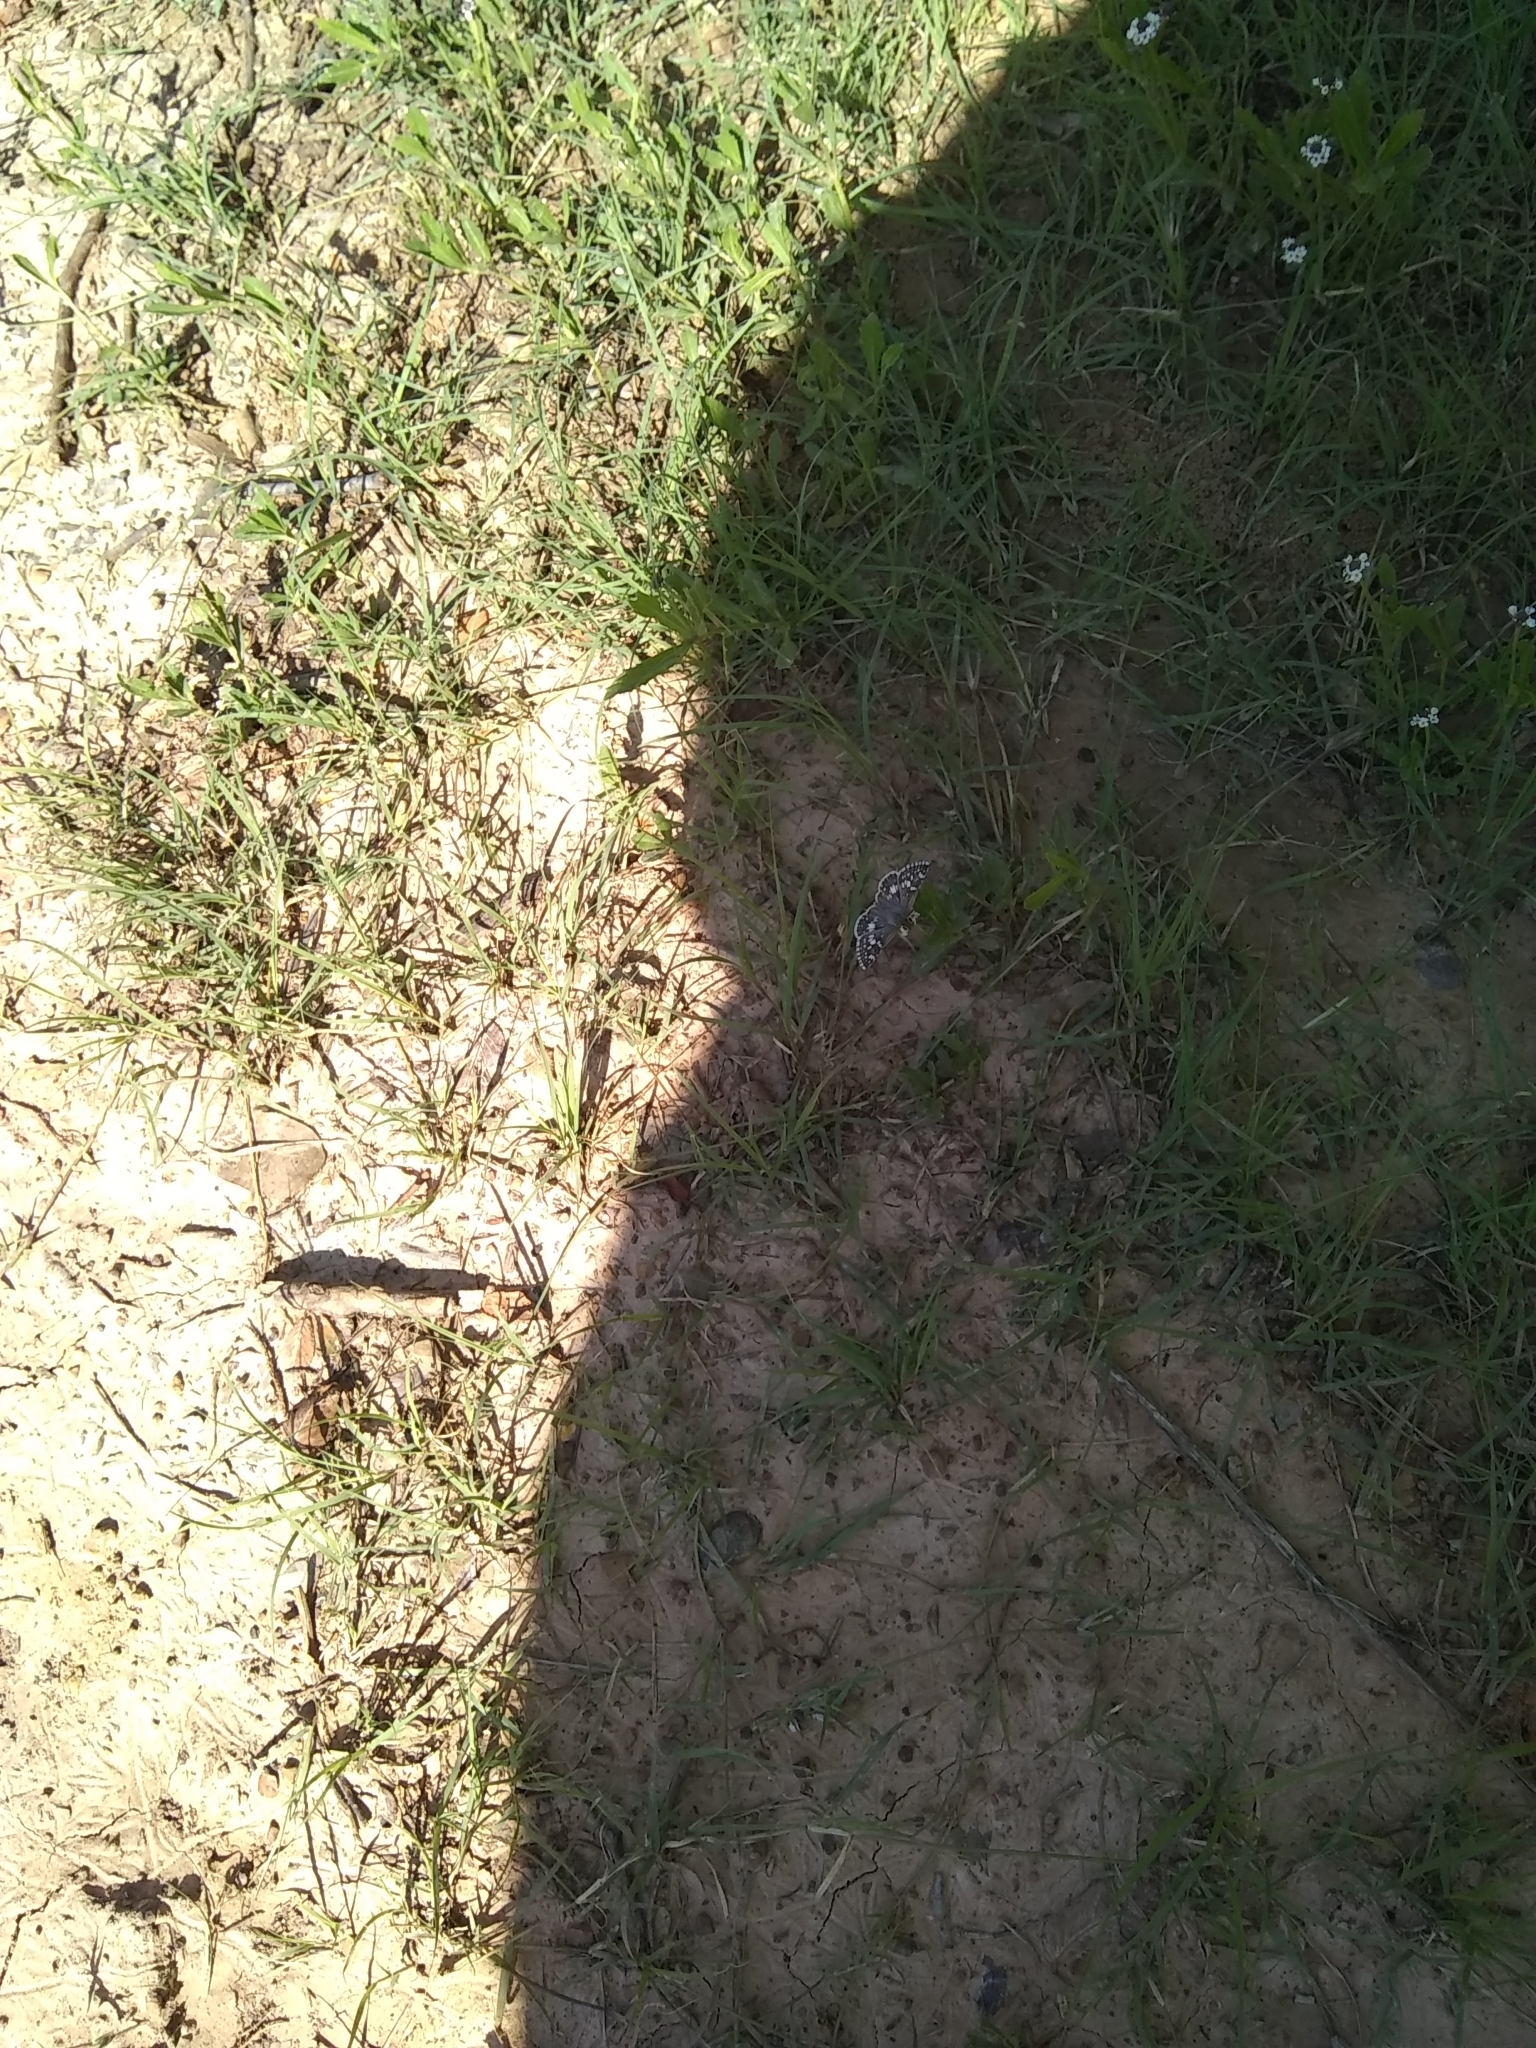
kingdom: Animalia
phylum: Arthropoda
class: Insecta
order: Lepidoptera
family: Hesperiidae
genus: Burnsius
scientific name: Burnsius communis
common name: Common checkered-skipper
